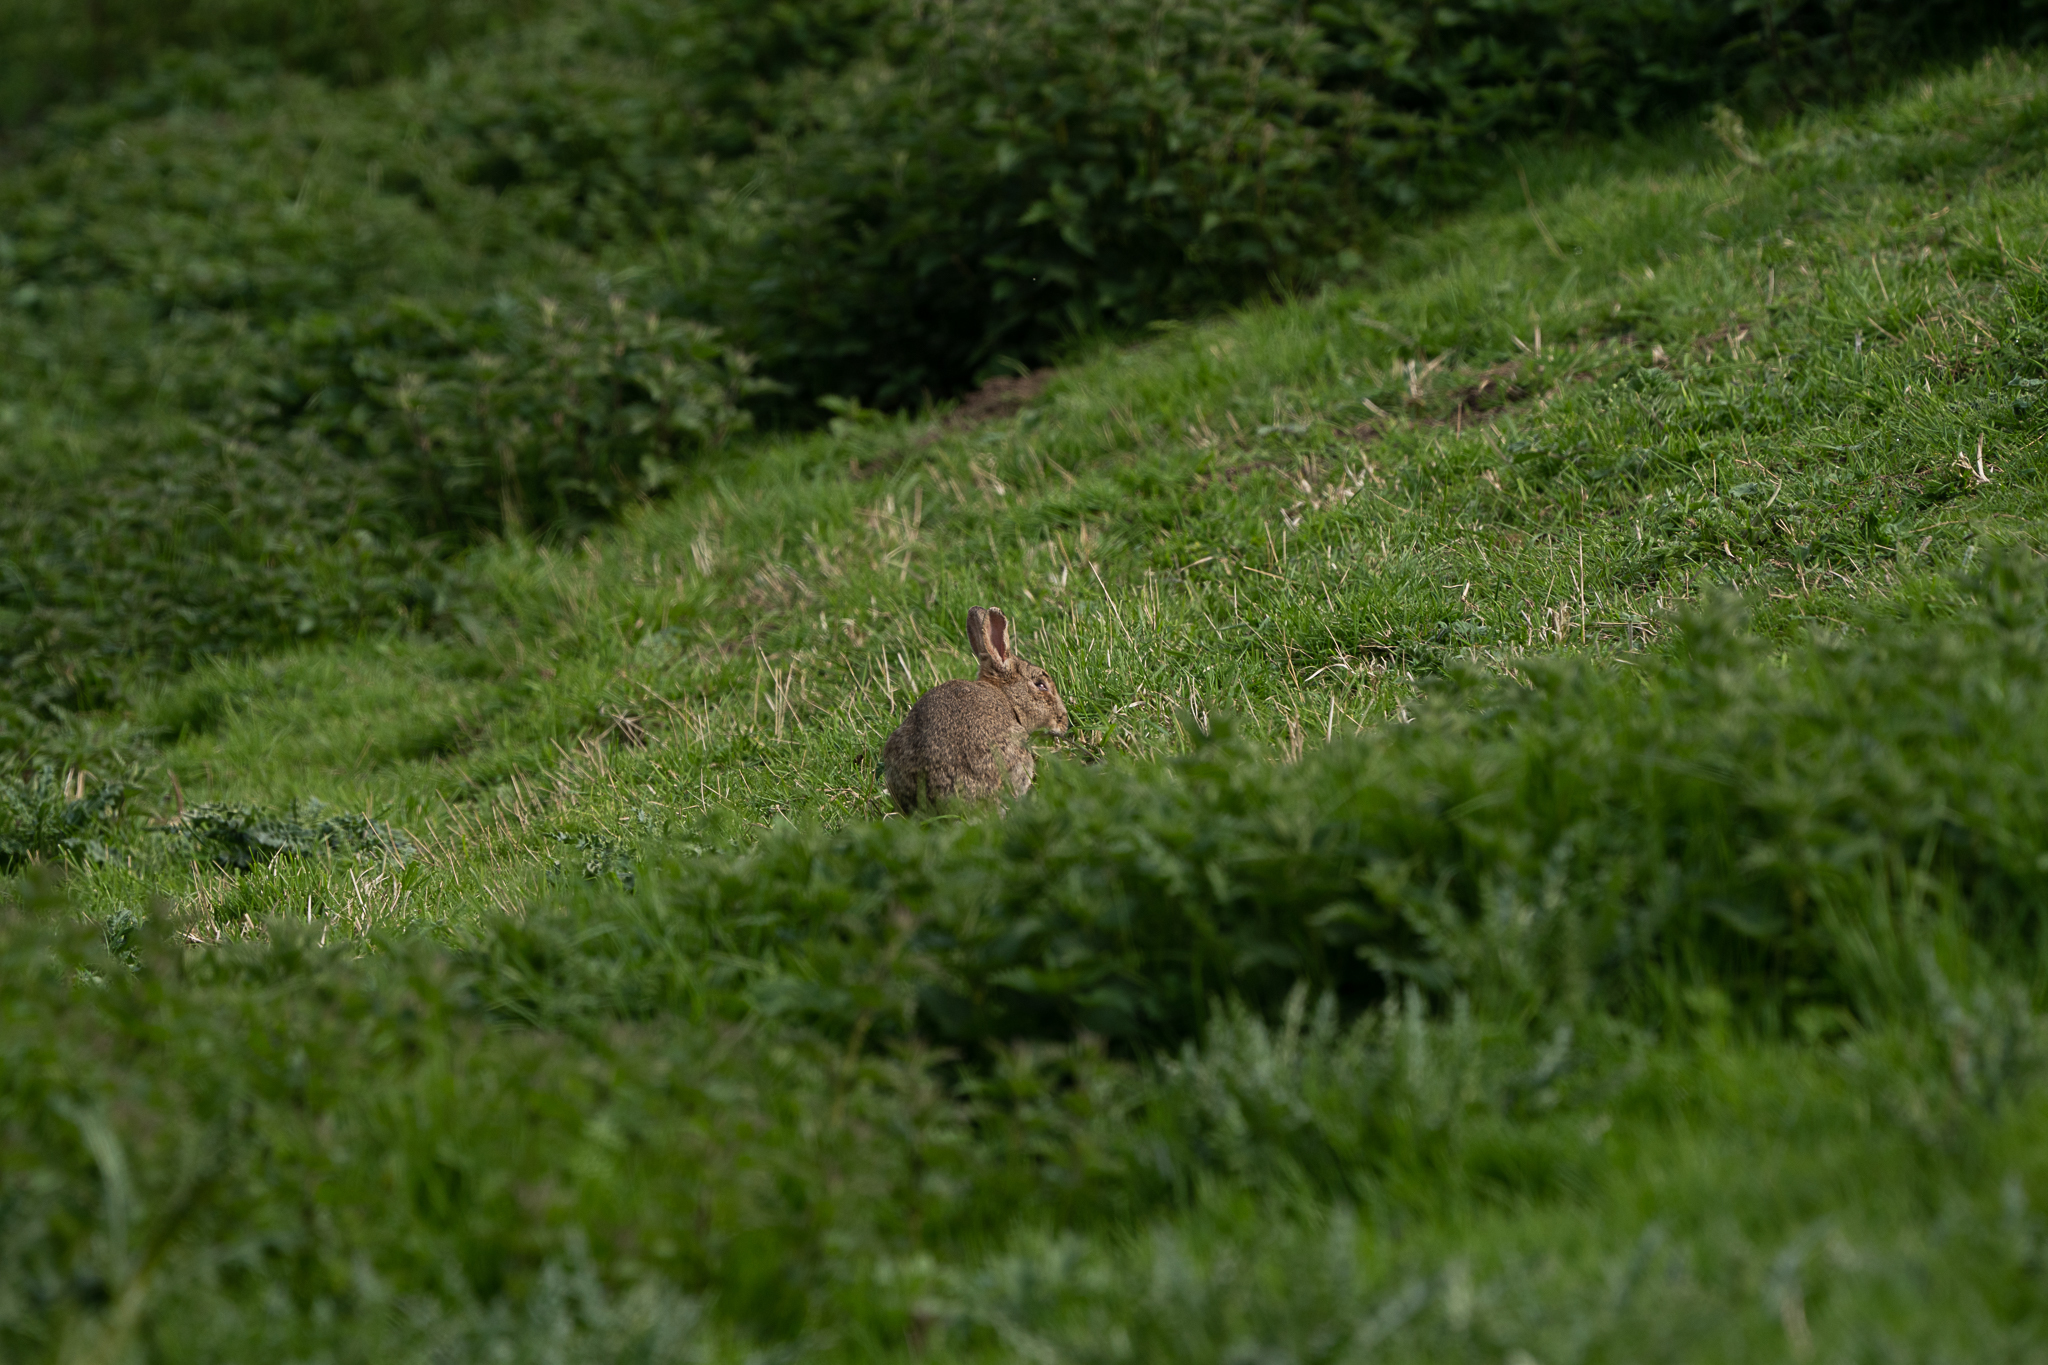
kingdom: Animalia
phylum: Chordata
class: Mammalia
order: Lagomorpha
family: Leporidae
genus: Oryctolagus
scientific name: Oryctolagus cuniculus
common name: European rabbit
